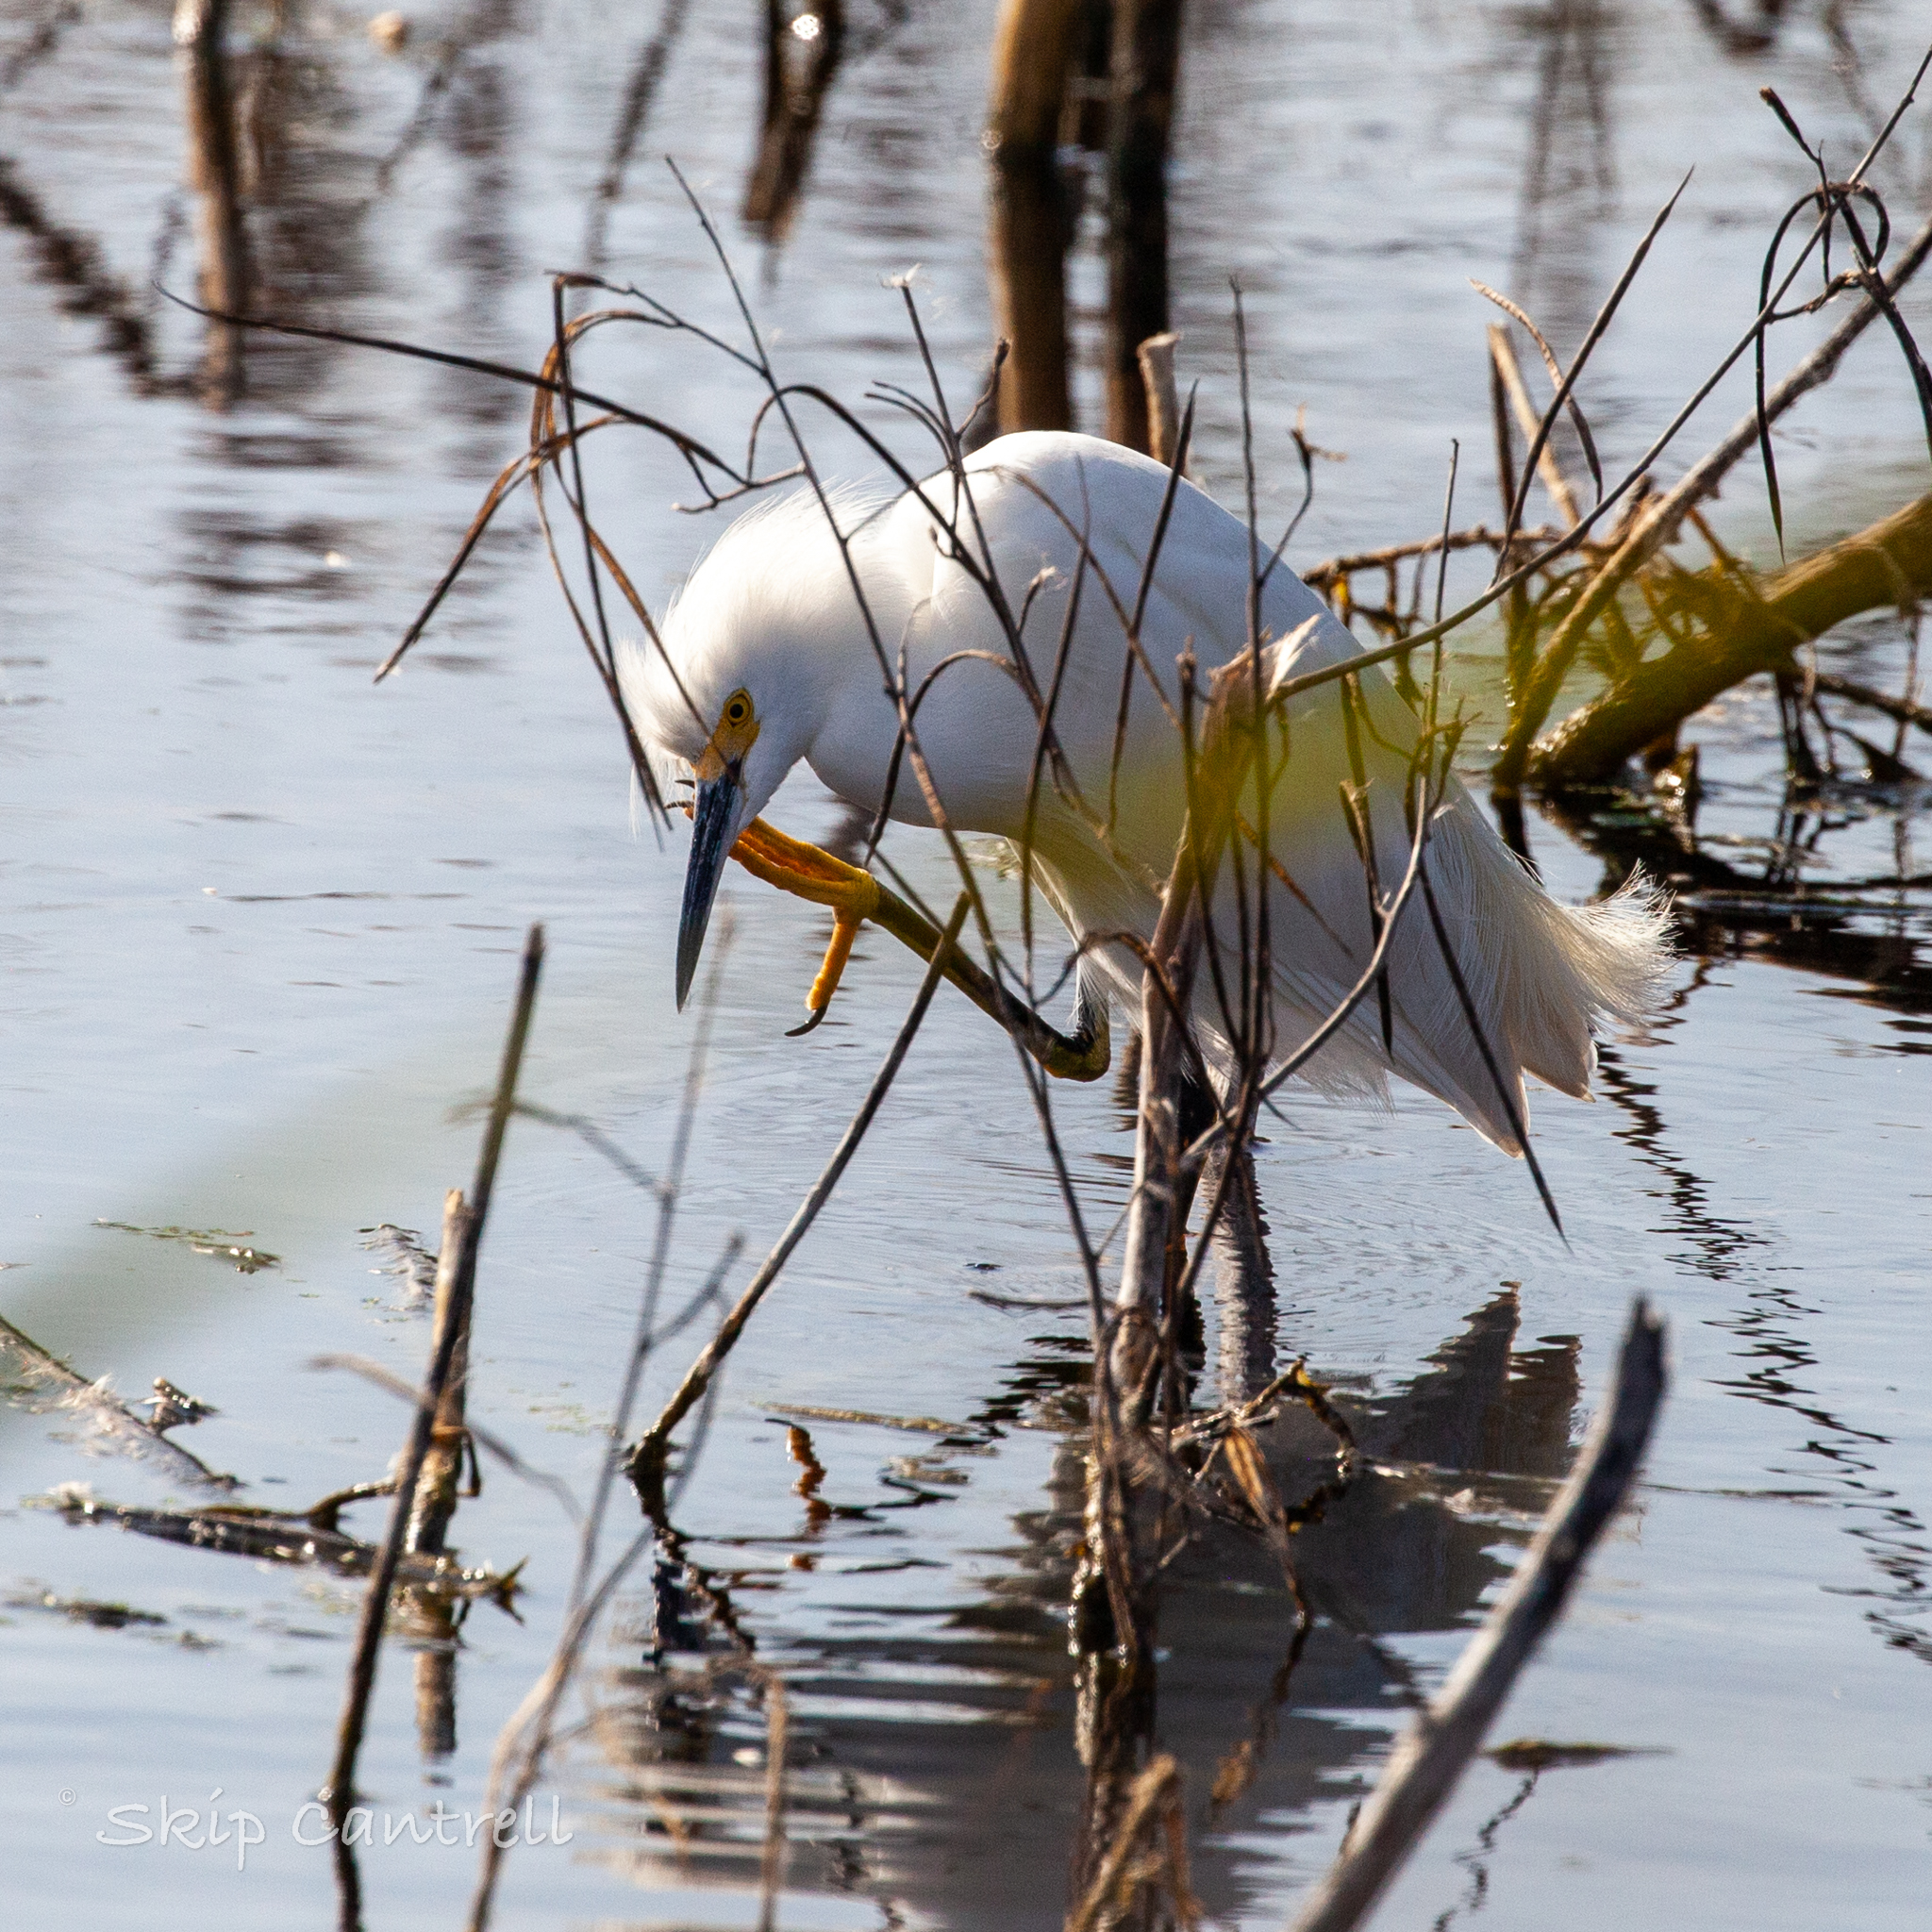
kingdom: Animalia
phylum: Chordata
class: Aves
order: Pelecaniformes
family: Ardeidae
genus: Egretta
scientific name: Egretta thula
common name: Snowy egret
